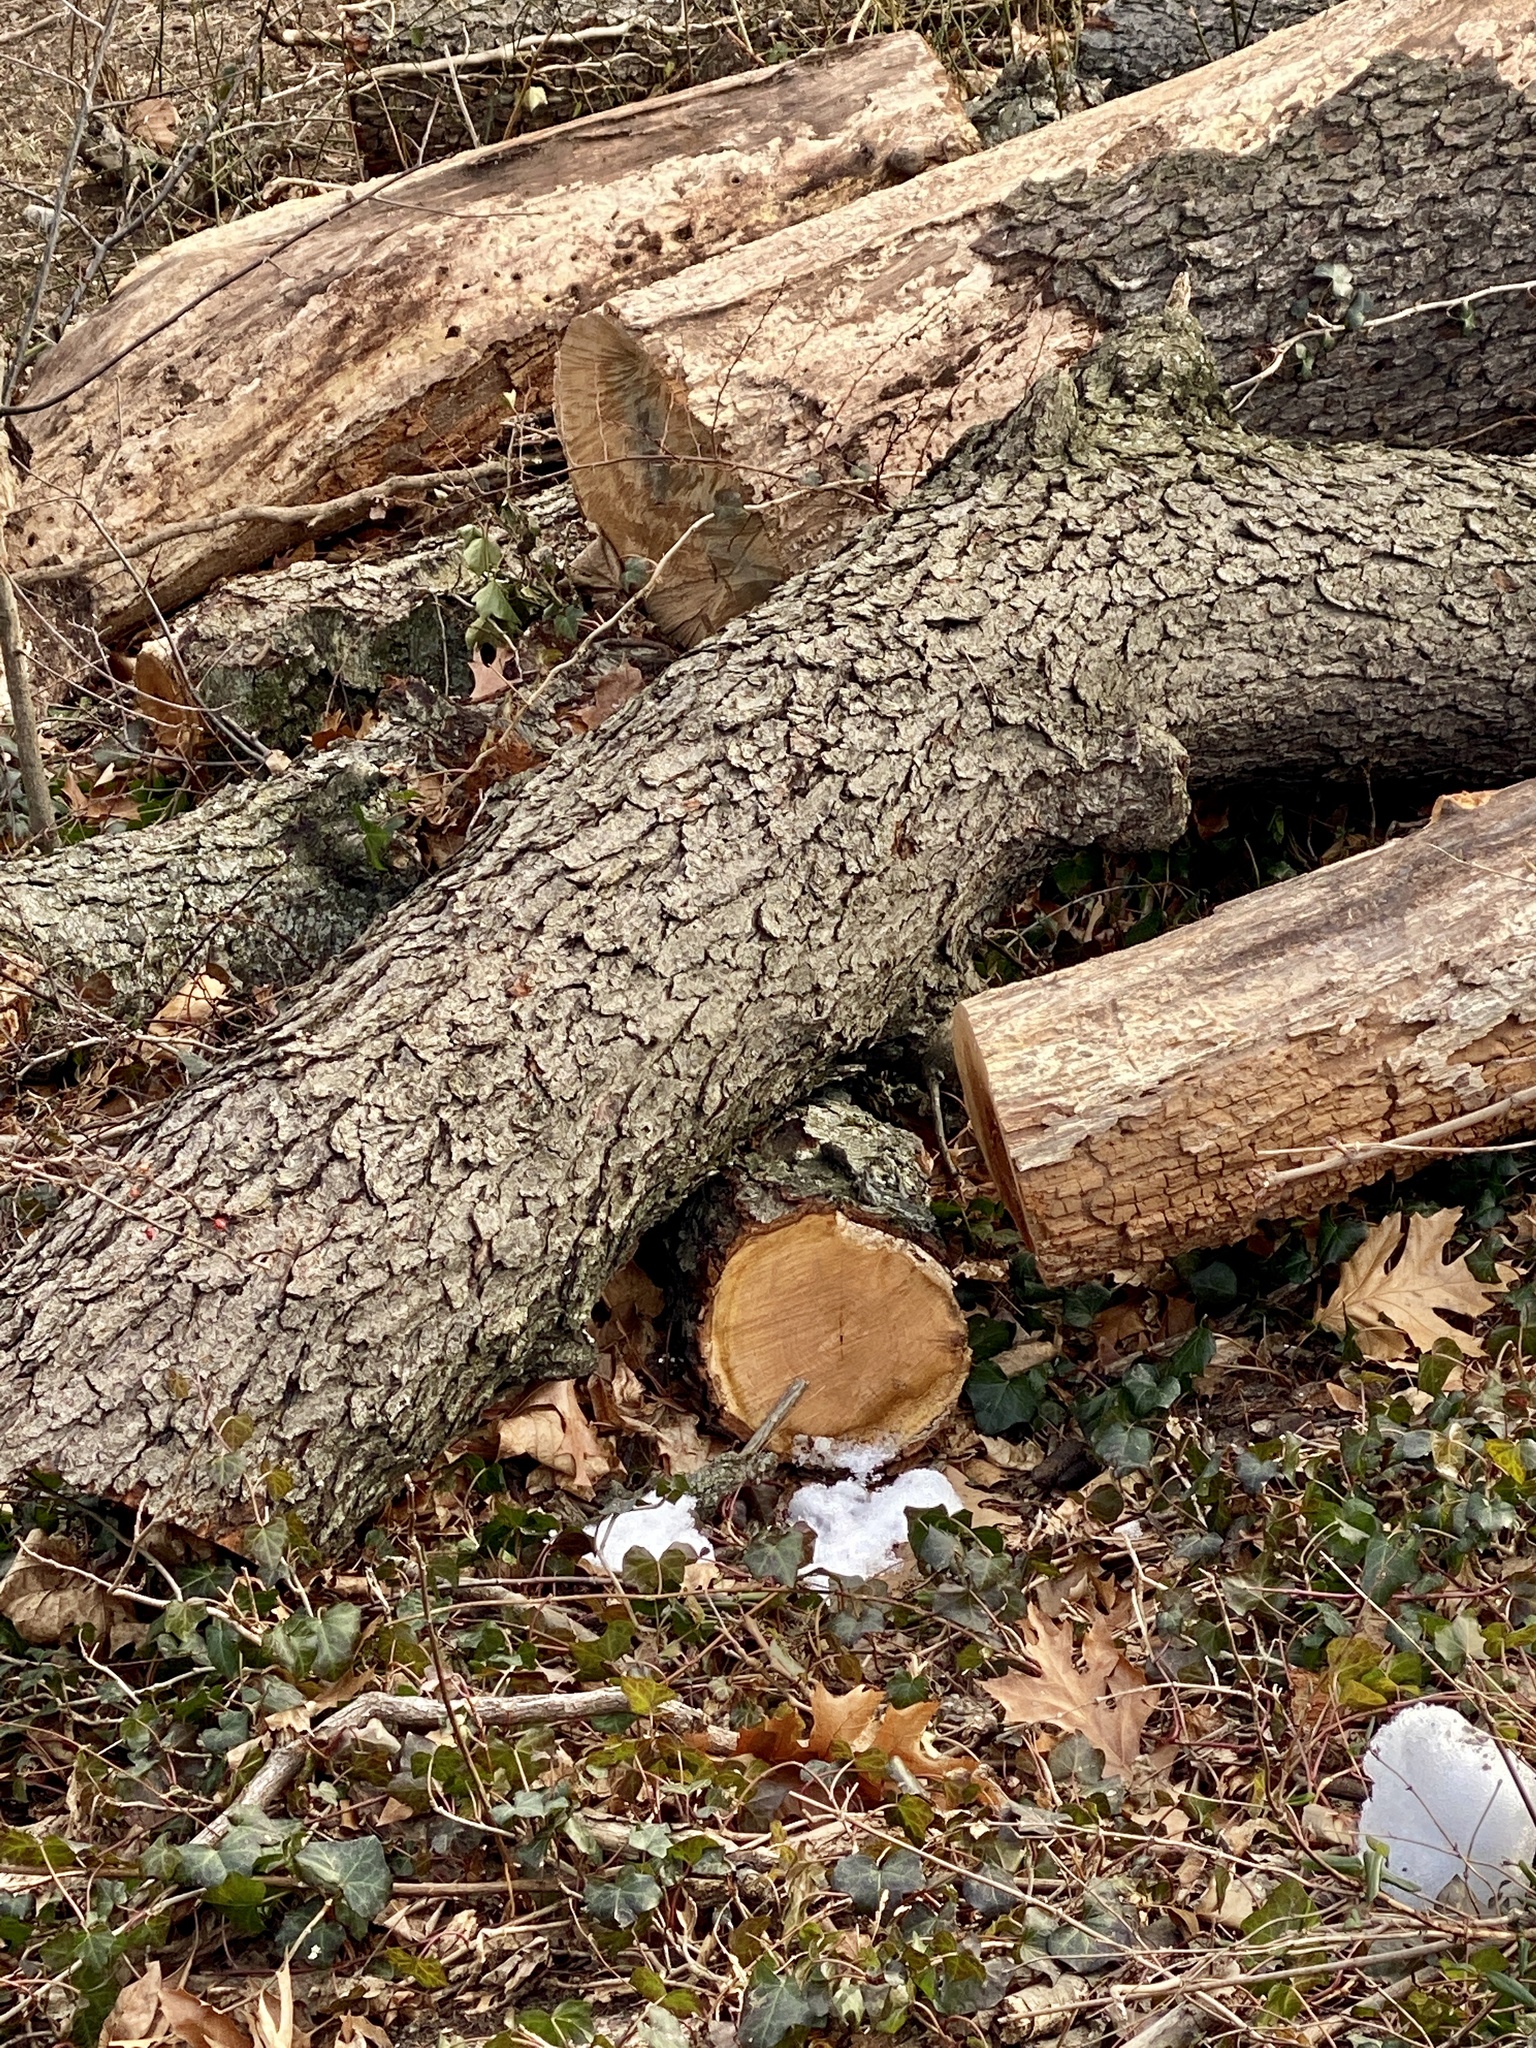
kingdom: Plantae
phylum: Tracheophyta
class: Magnoliopsida
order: Rosales
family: Rosaceae
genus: Prunus
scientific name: Prunus serotina
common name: Black cherry
